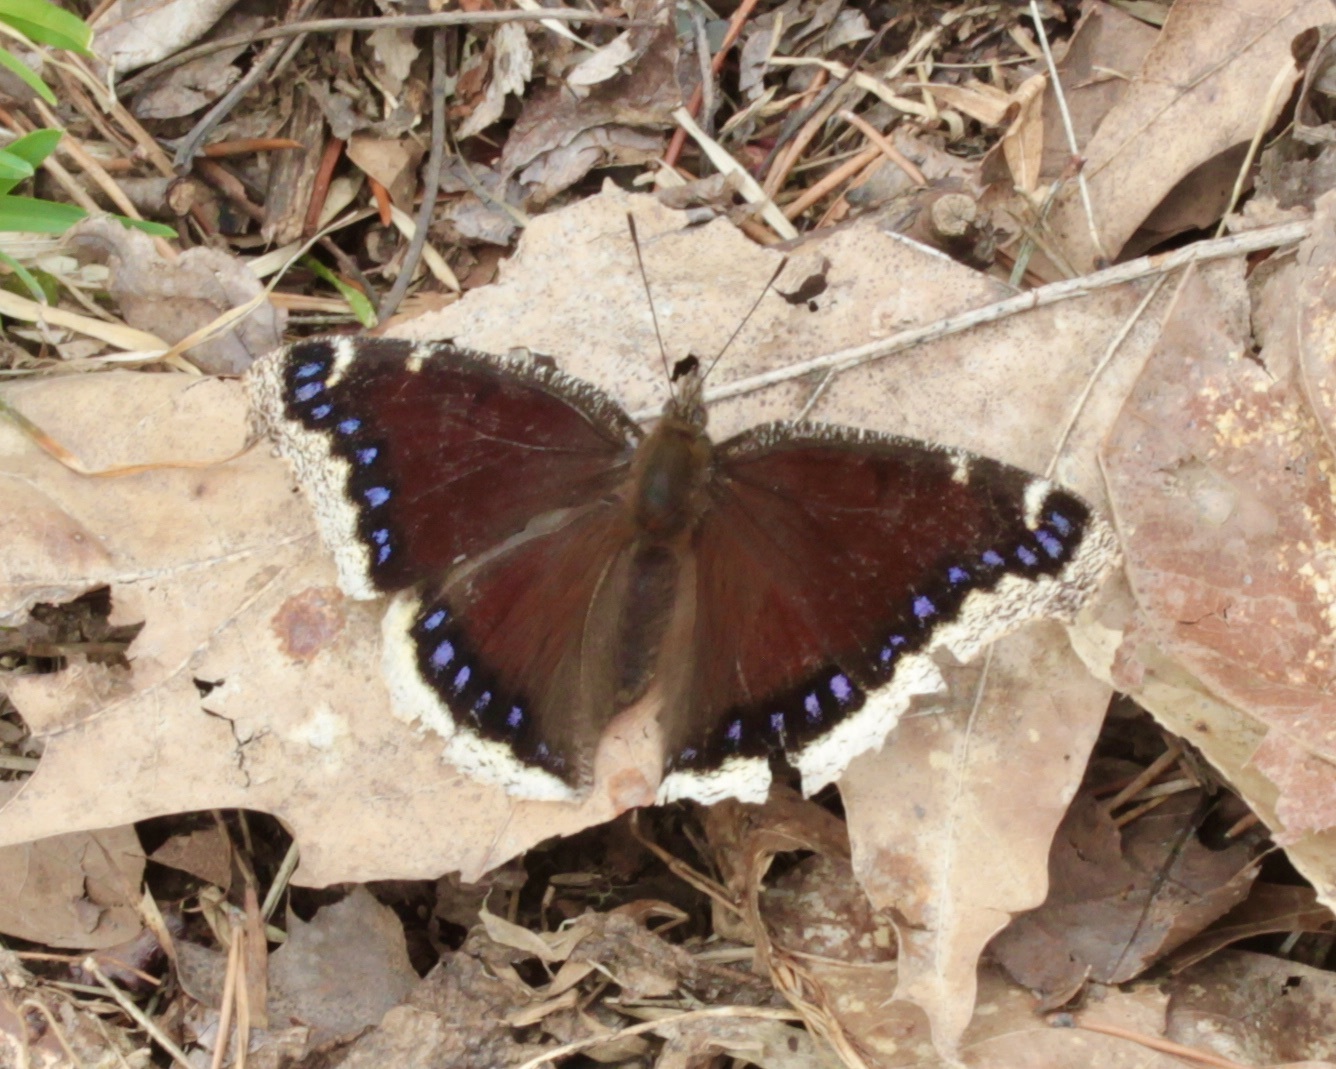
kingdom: Animalia
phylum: Arthropoda
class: Insecta
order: Lepidoptera
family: Nymphalidae
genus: Nymphalis
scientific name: Nymphalis antiopa
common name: Camberwell beauty
